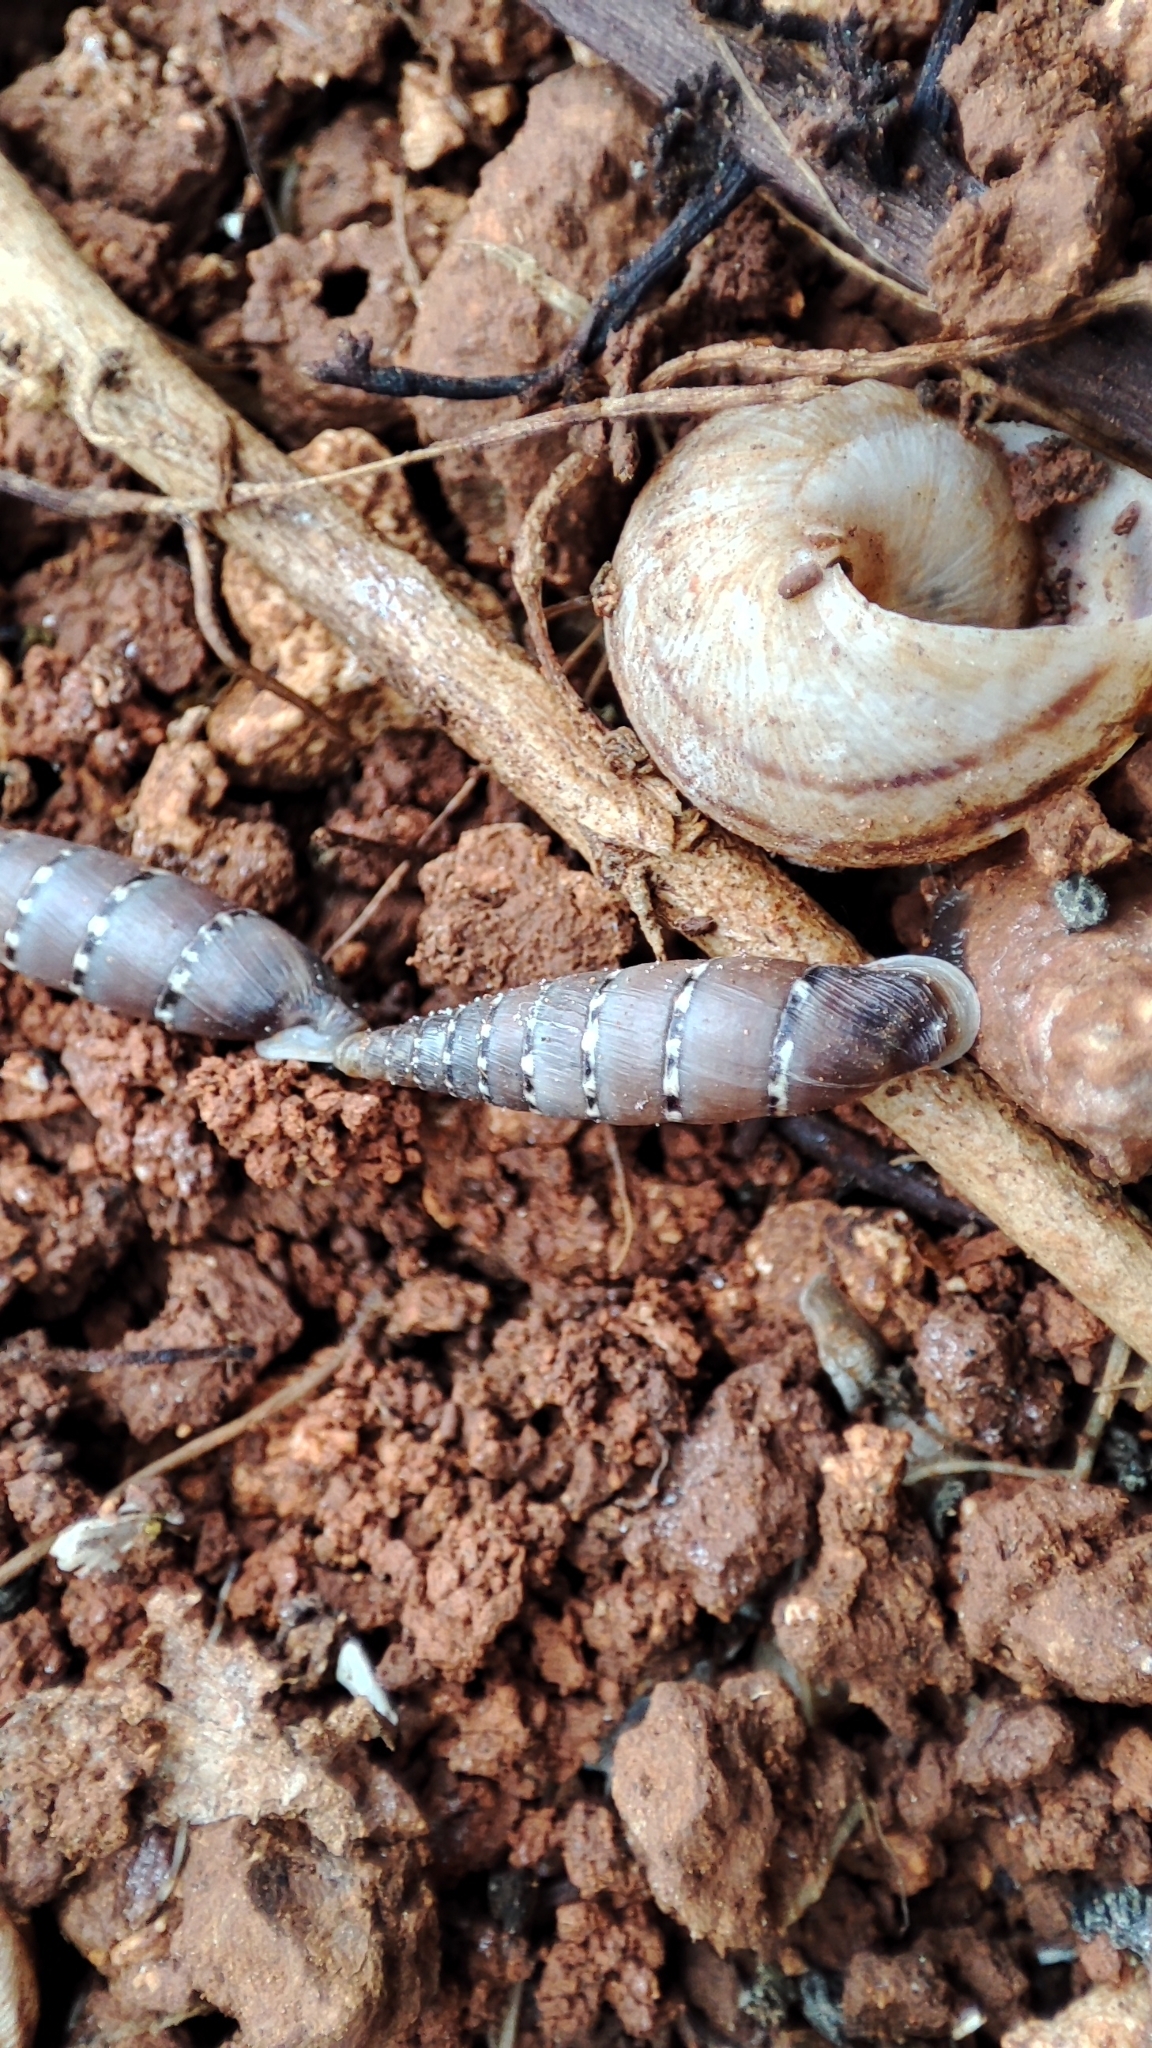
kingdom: Animalia
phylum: Mollusca
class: Gastropoda
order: Stylommatophora
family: Clausiliidae
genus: Papillifera
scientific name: Papillifera papillaris
